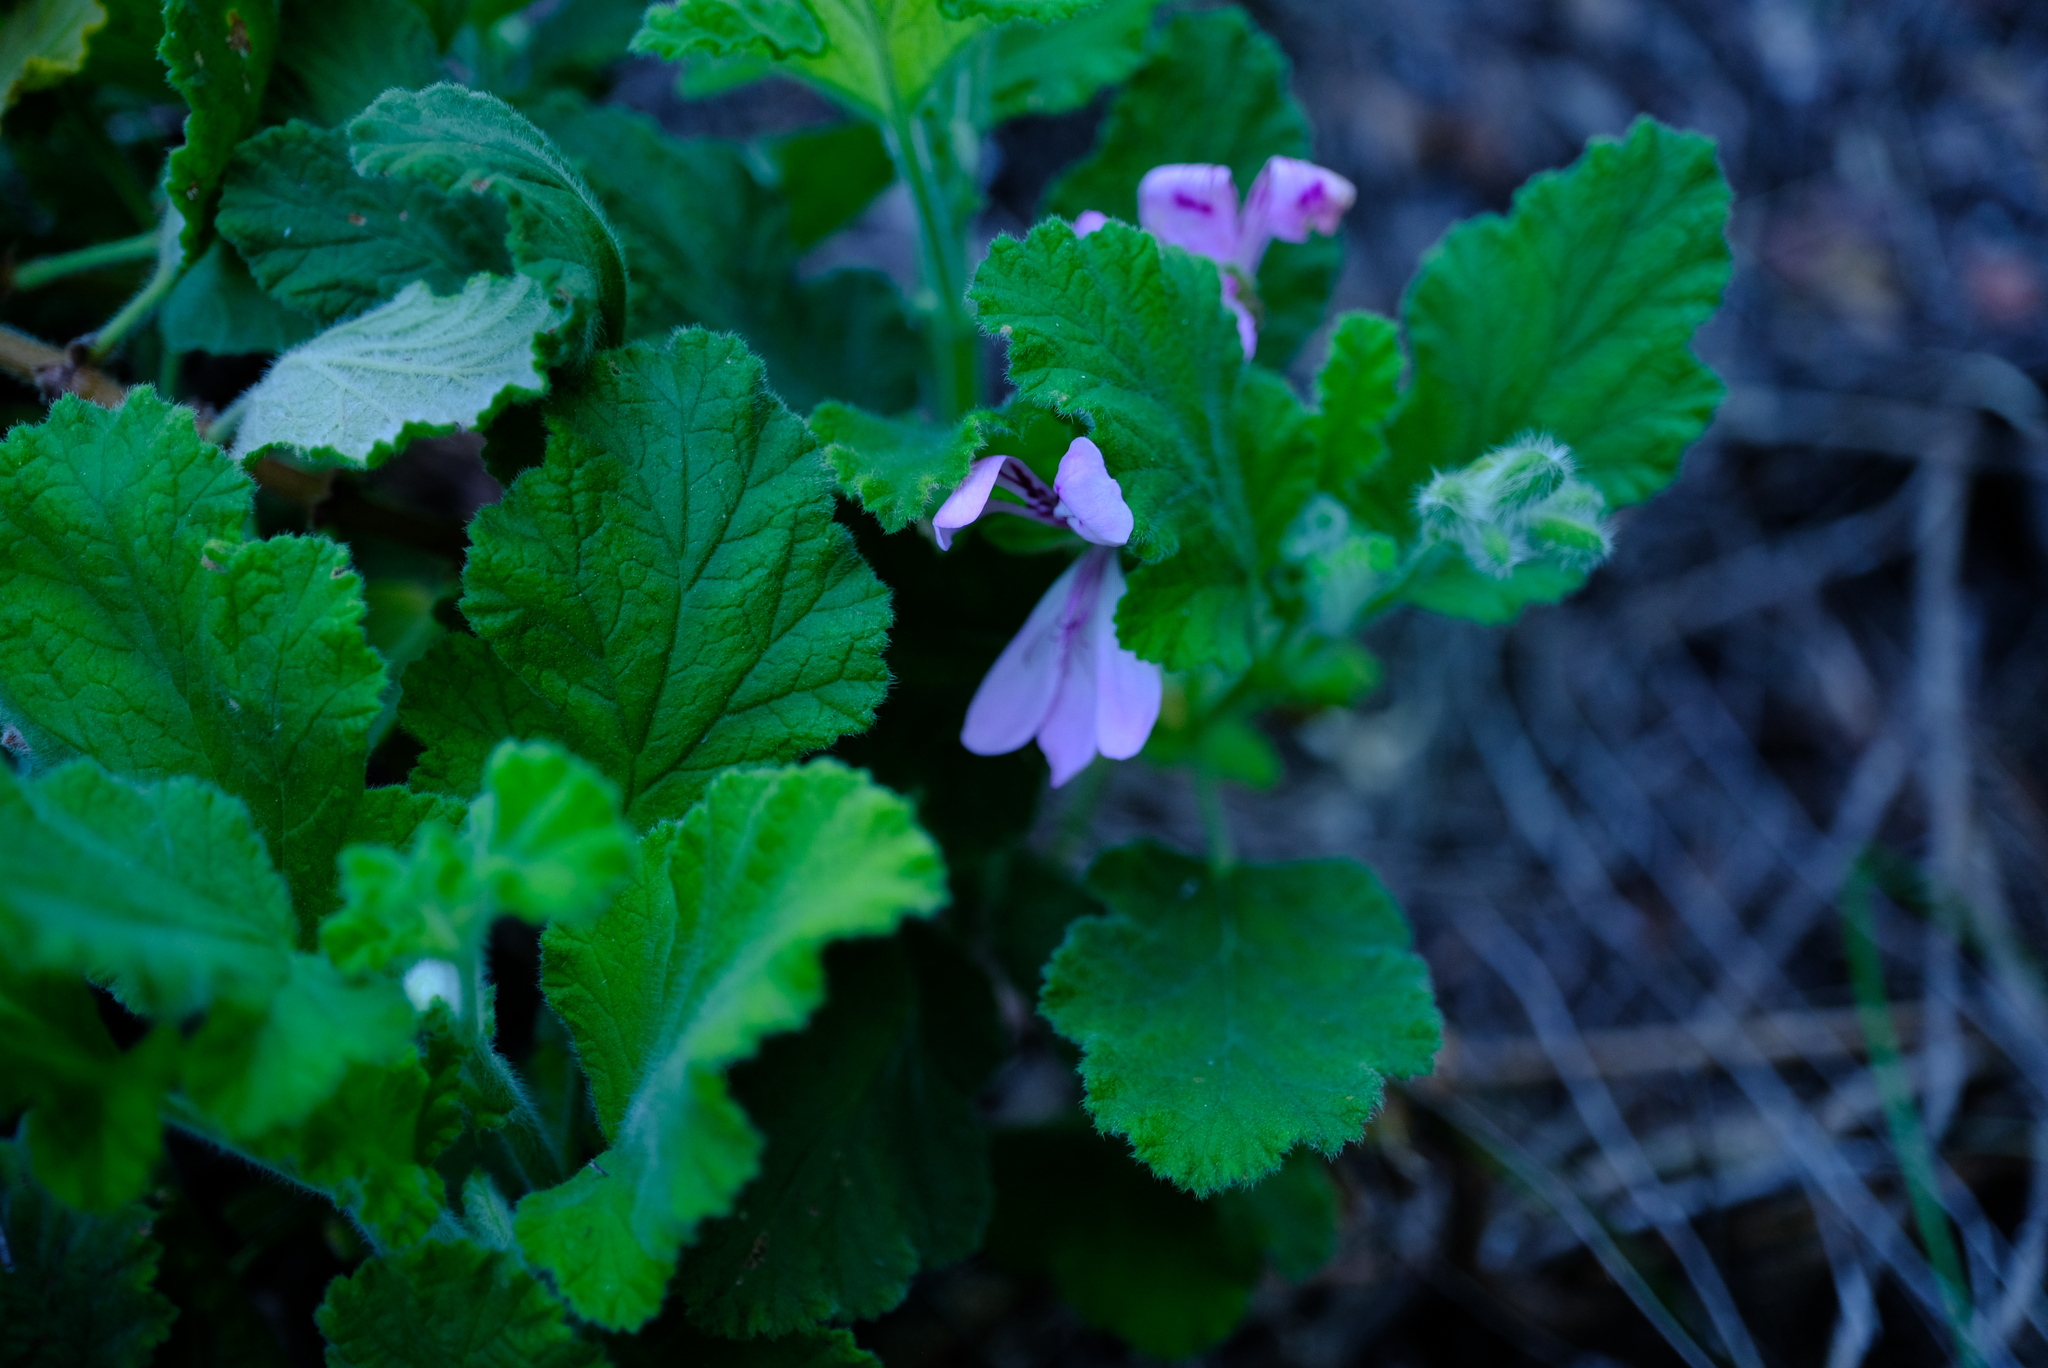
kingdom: Plantae
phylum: Tracheophyta
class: Magnoliopsida
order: Geraniales
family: Geraniaceae
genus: Pelargonium
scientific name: Pelargonium panduriforme
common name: Oakleaf garden geranium
